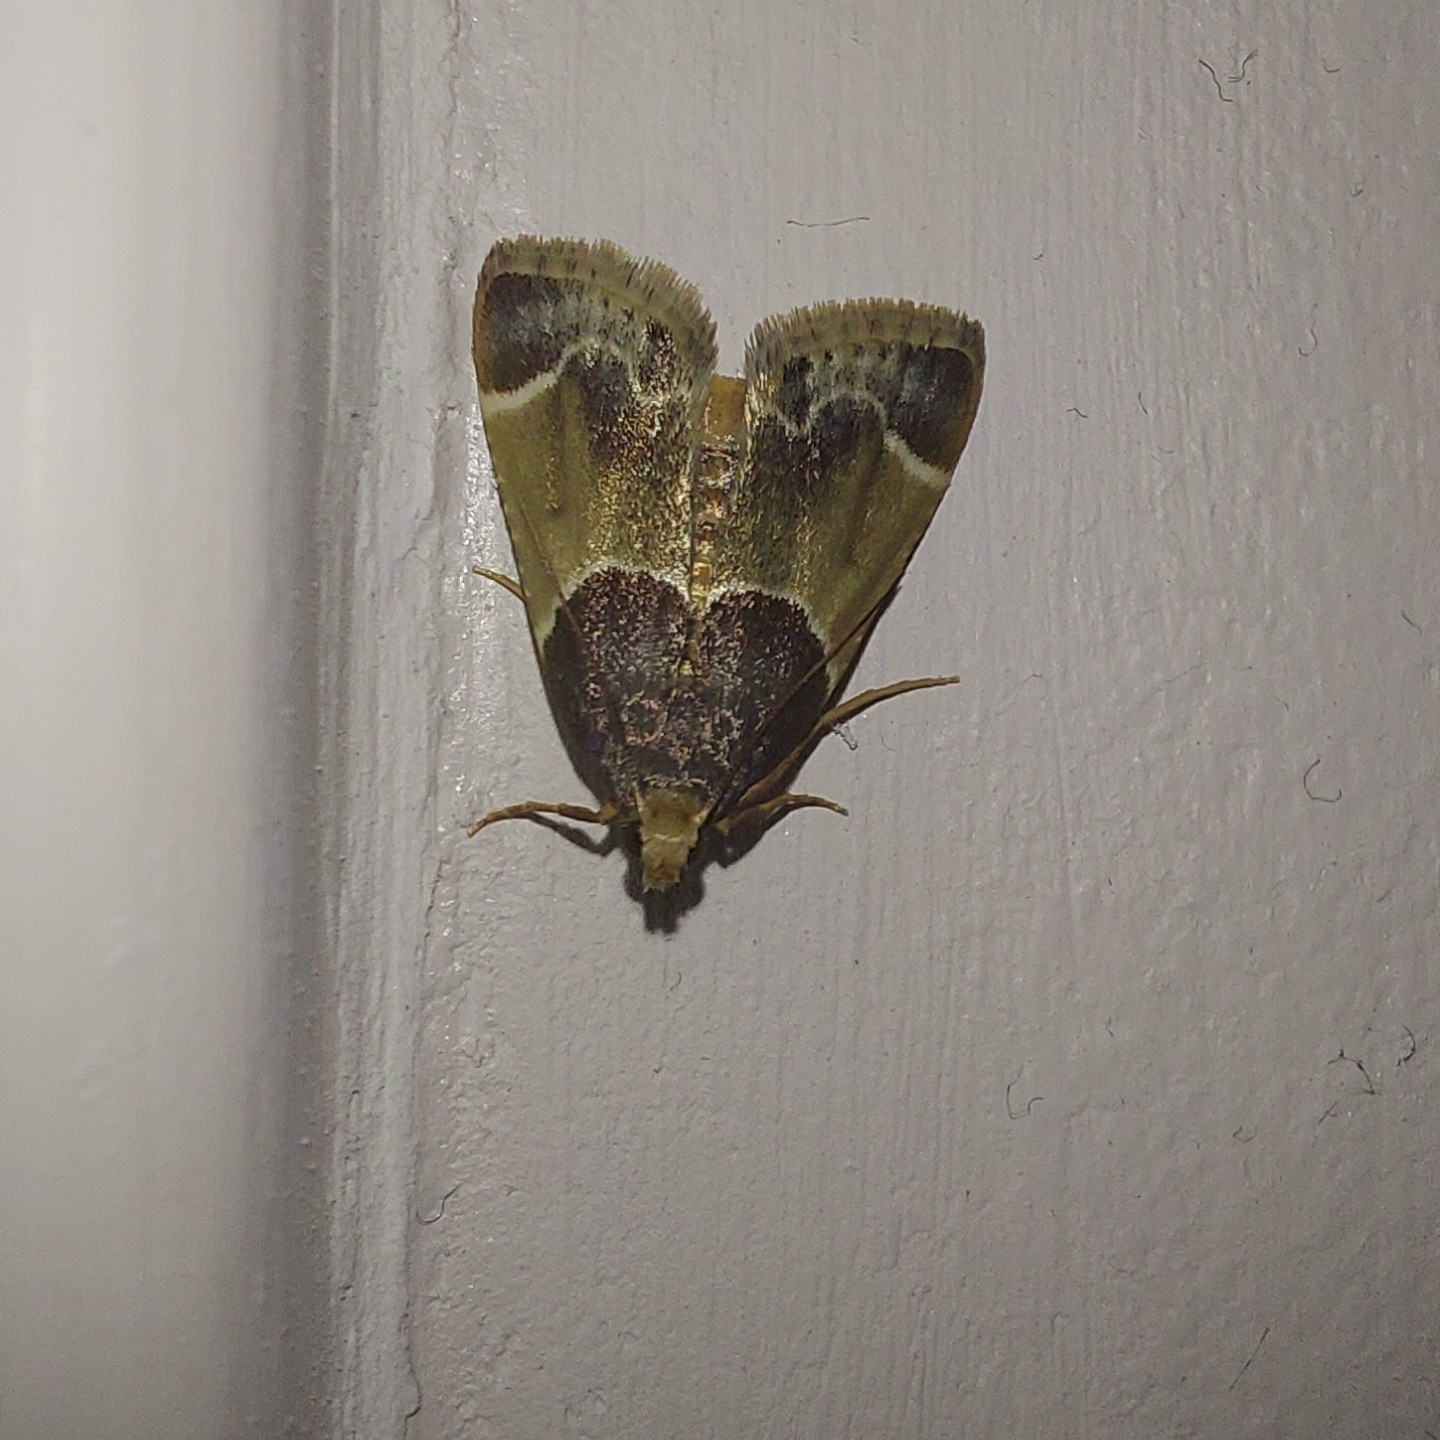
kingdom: Animalia
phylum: Arthropoda
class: Insecta
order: Lepidoptera
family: Pyralidae
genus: Pyralis
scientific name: Pyralis farinalis
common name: Meal moth
